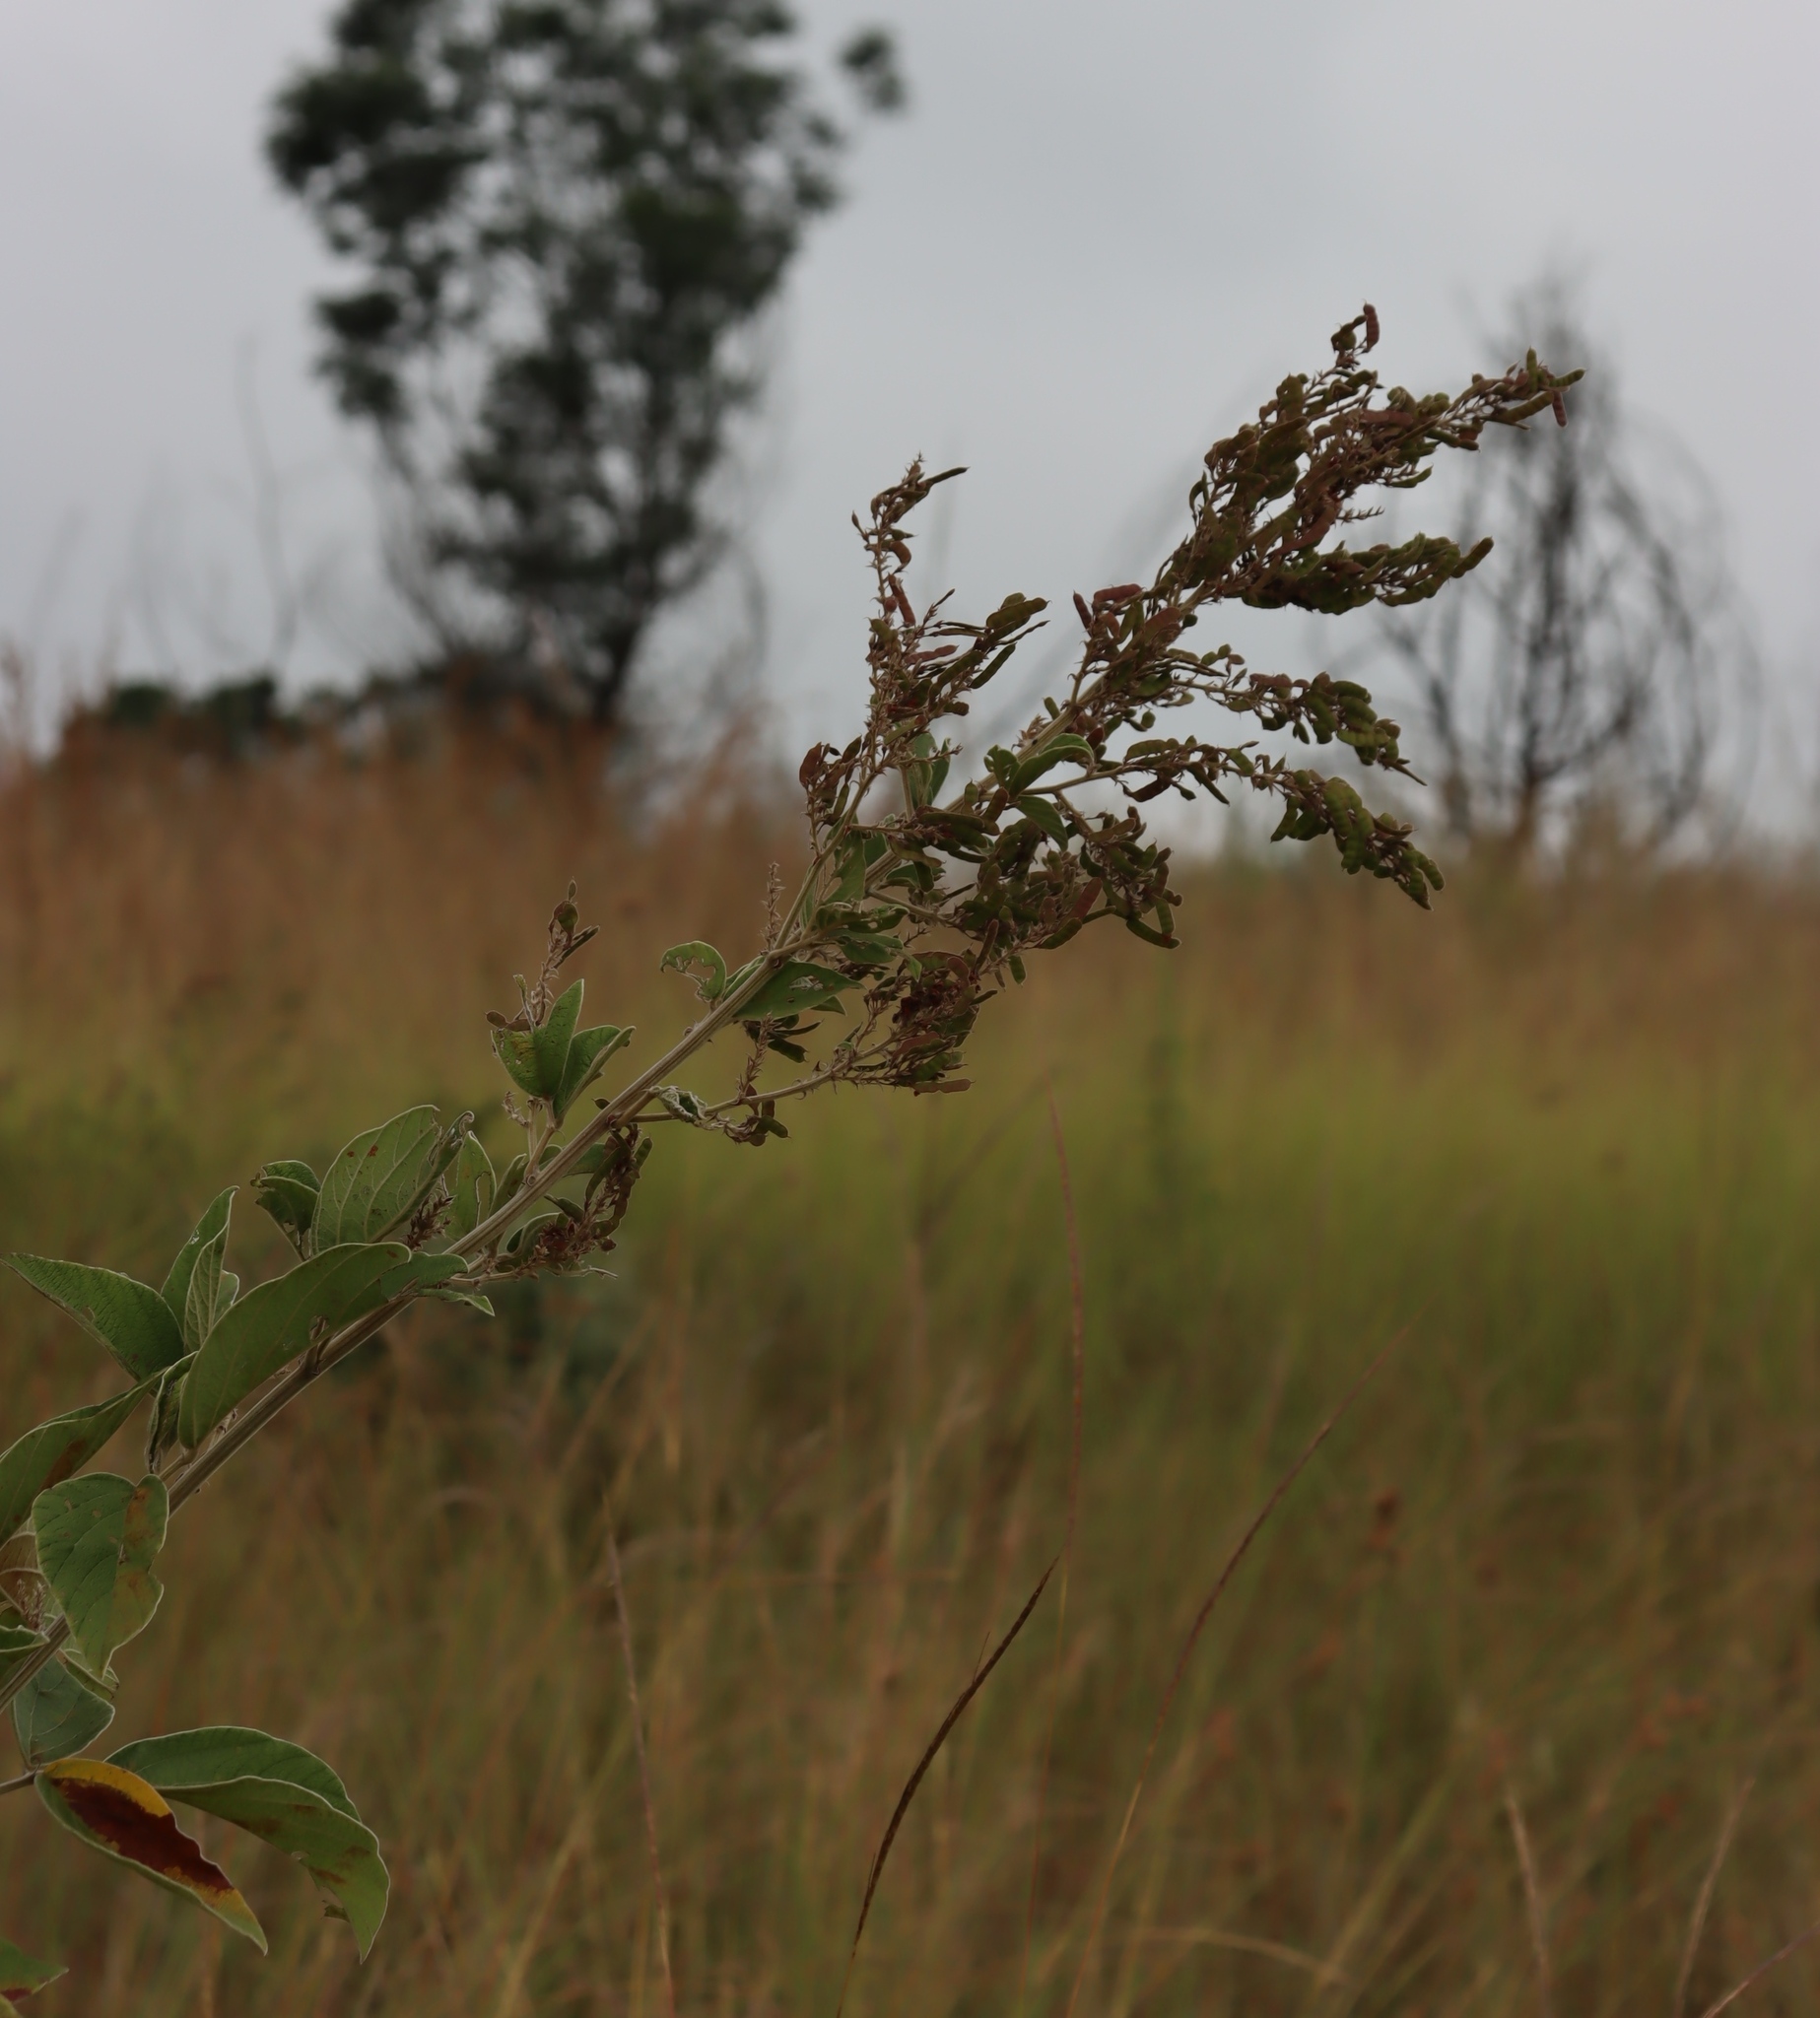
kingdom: Plantae
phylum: Tracheophyta
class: Magnoliopsida
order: Fabales
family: Fabaceae
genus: Pseudarthria
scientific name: Pseudarthria hookeri
